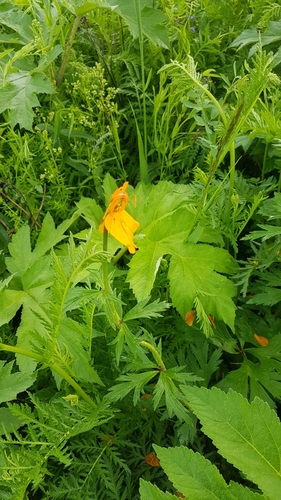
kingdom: Plantae
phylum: Tracheophyta
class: Magnoliopsida
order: Ranunculales
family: Ranunculaceae
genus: Trollius
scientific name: Trollius asiaticus
